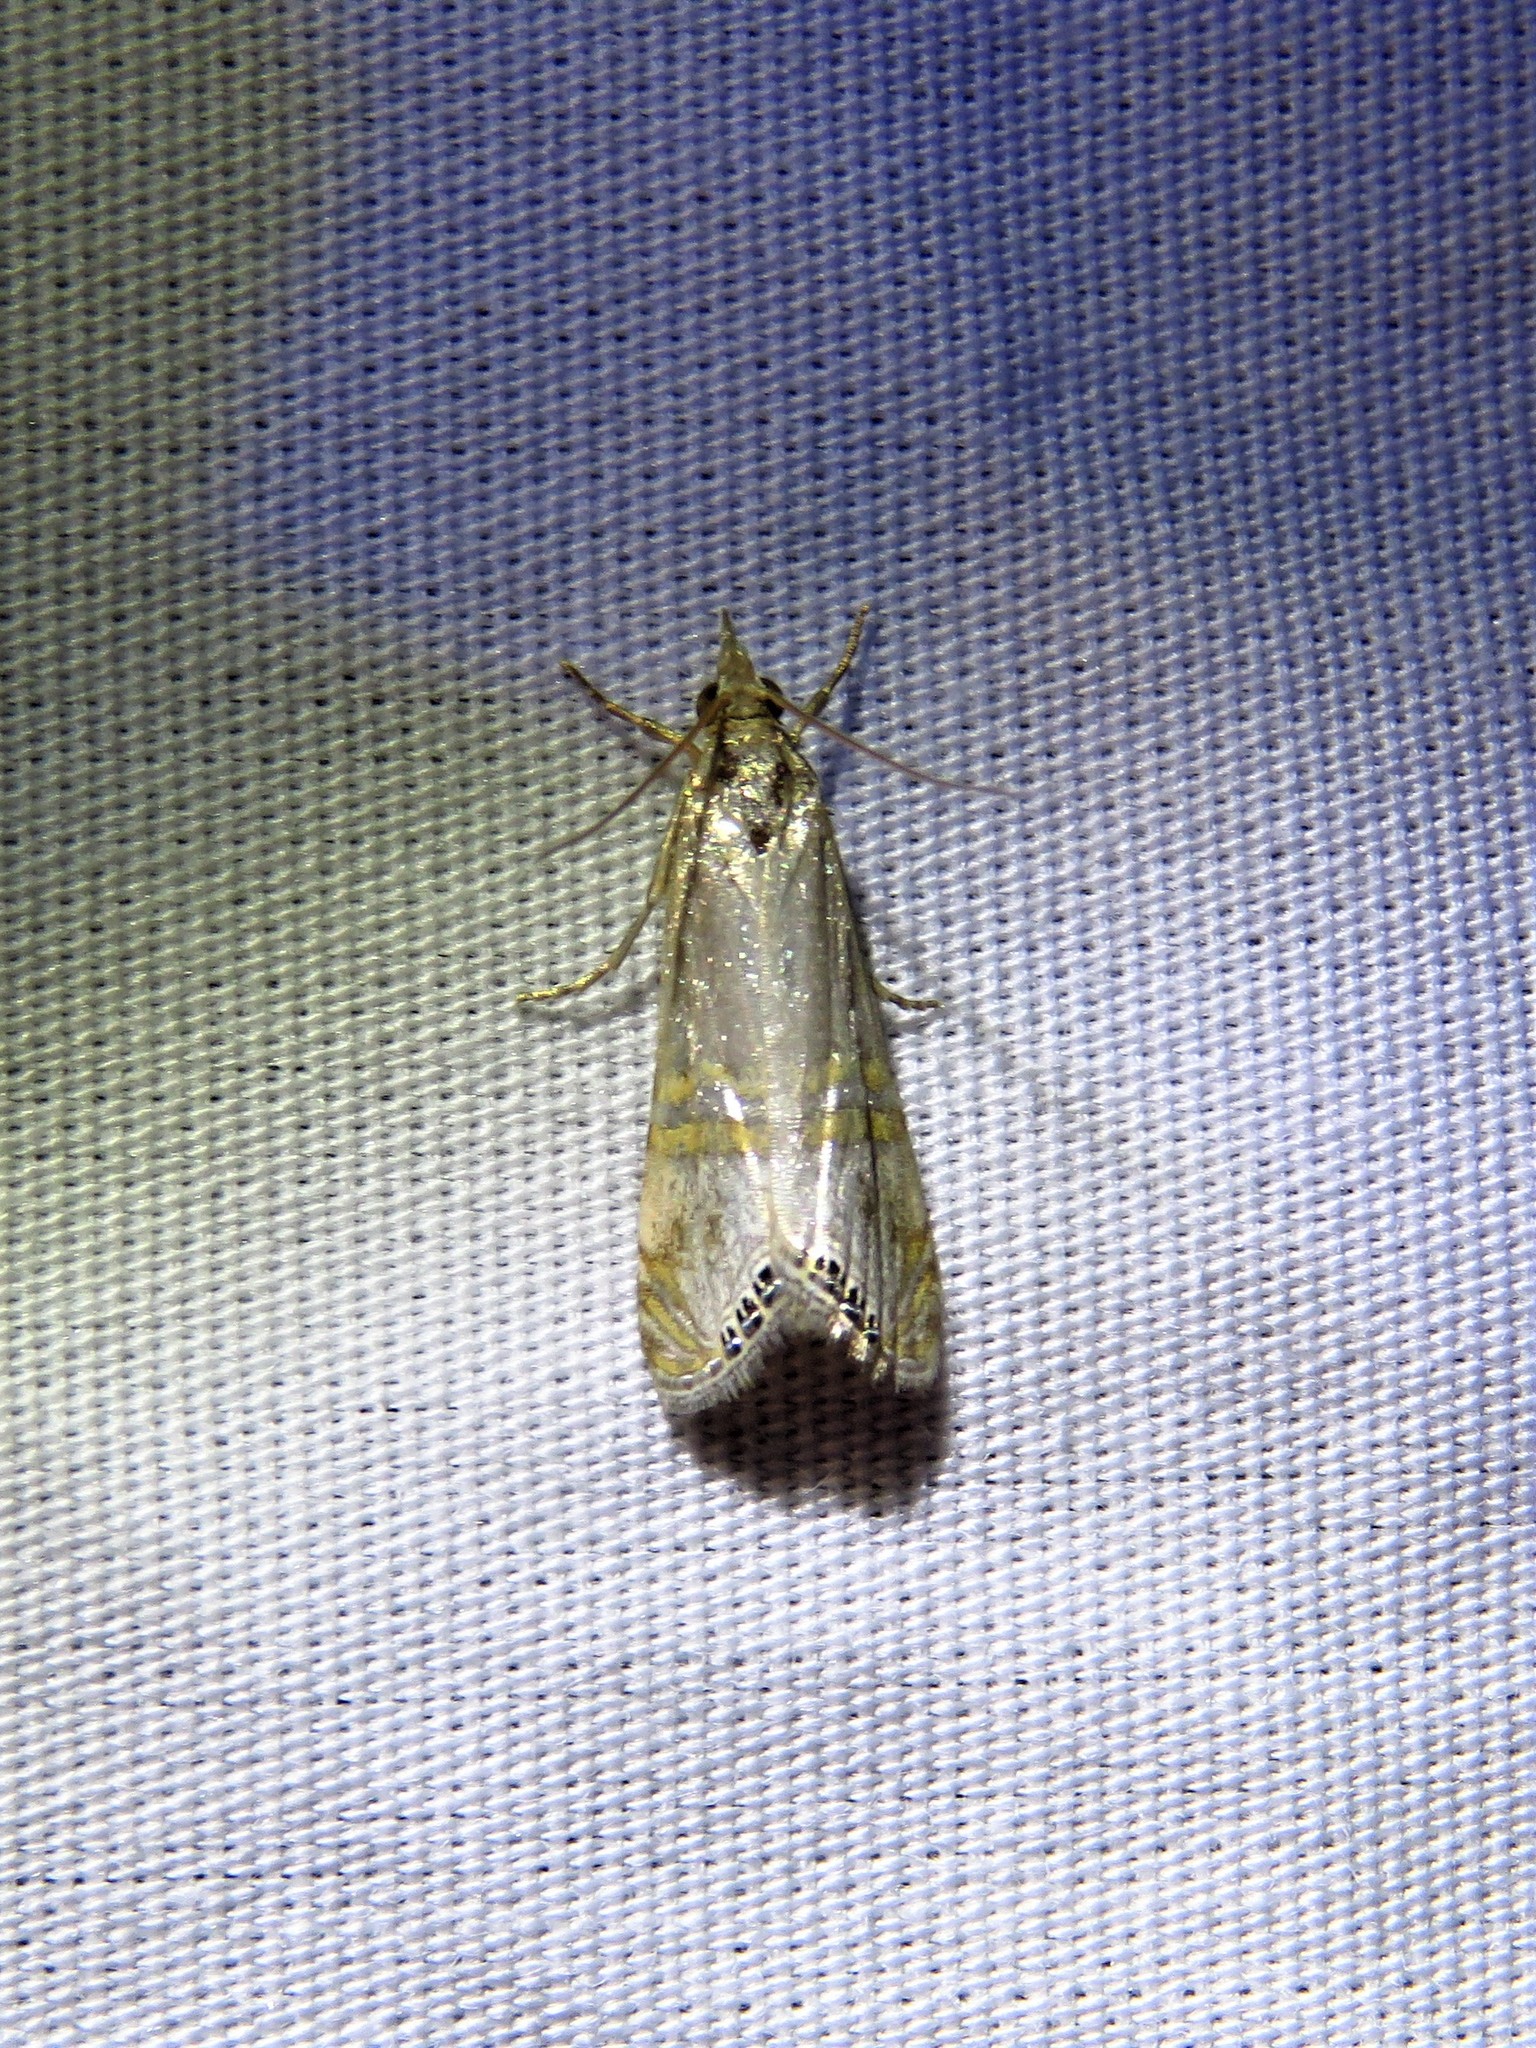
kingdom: Animalia
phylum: Arthropoda
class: Insecta
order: Lepidoptera
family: Crambidae
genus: Euchromius
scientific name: Euchromius ocellea
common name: Necklace veneer moth
